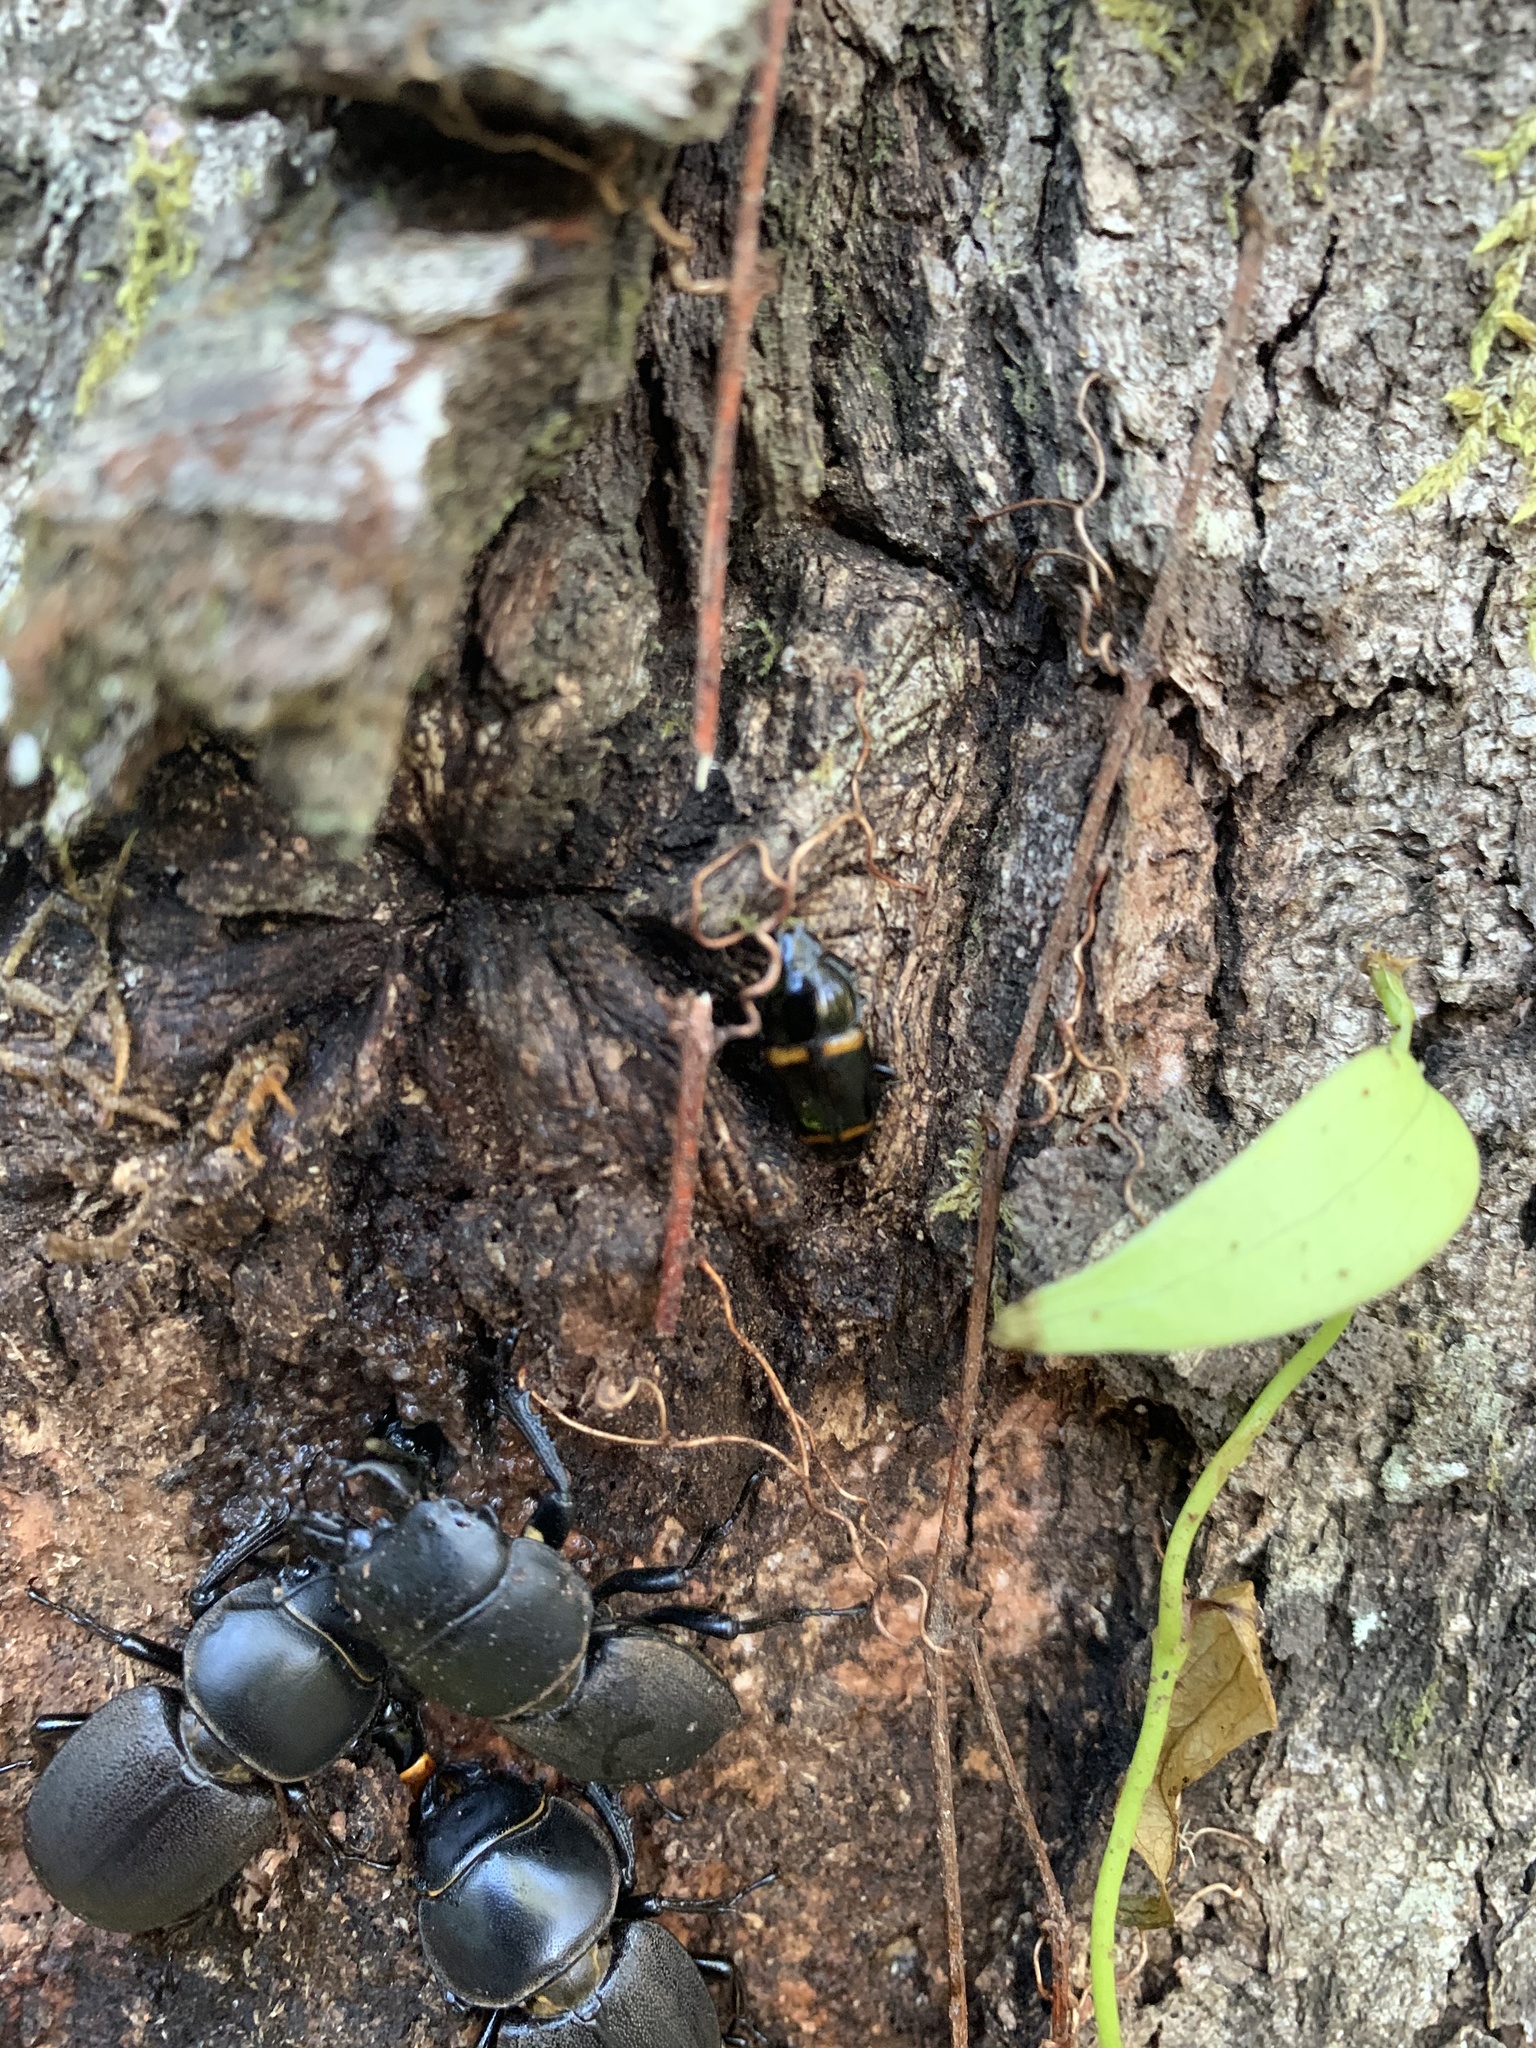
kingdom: Animalia
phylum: Arthropoda
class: Insecta
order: Coleoptera
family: Nitidulidae
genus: Lioschema
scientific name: Lioschema
